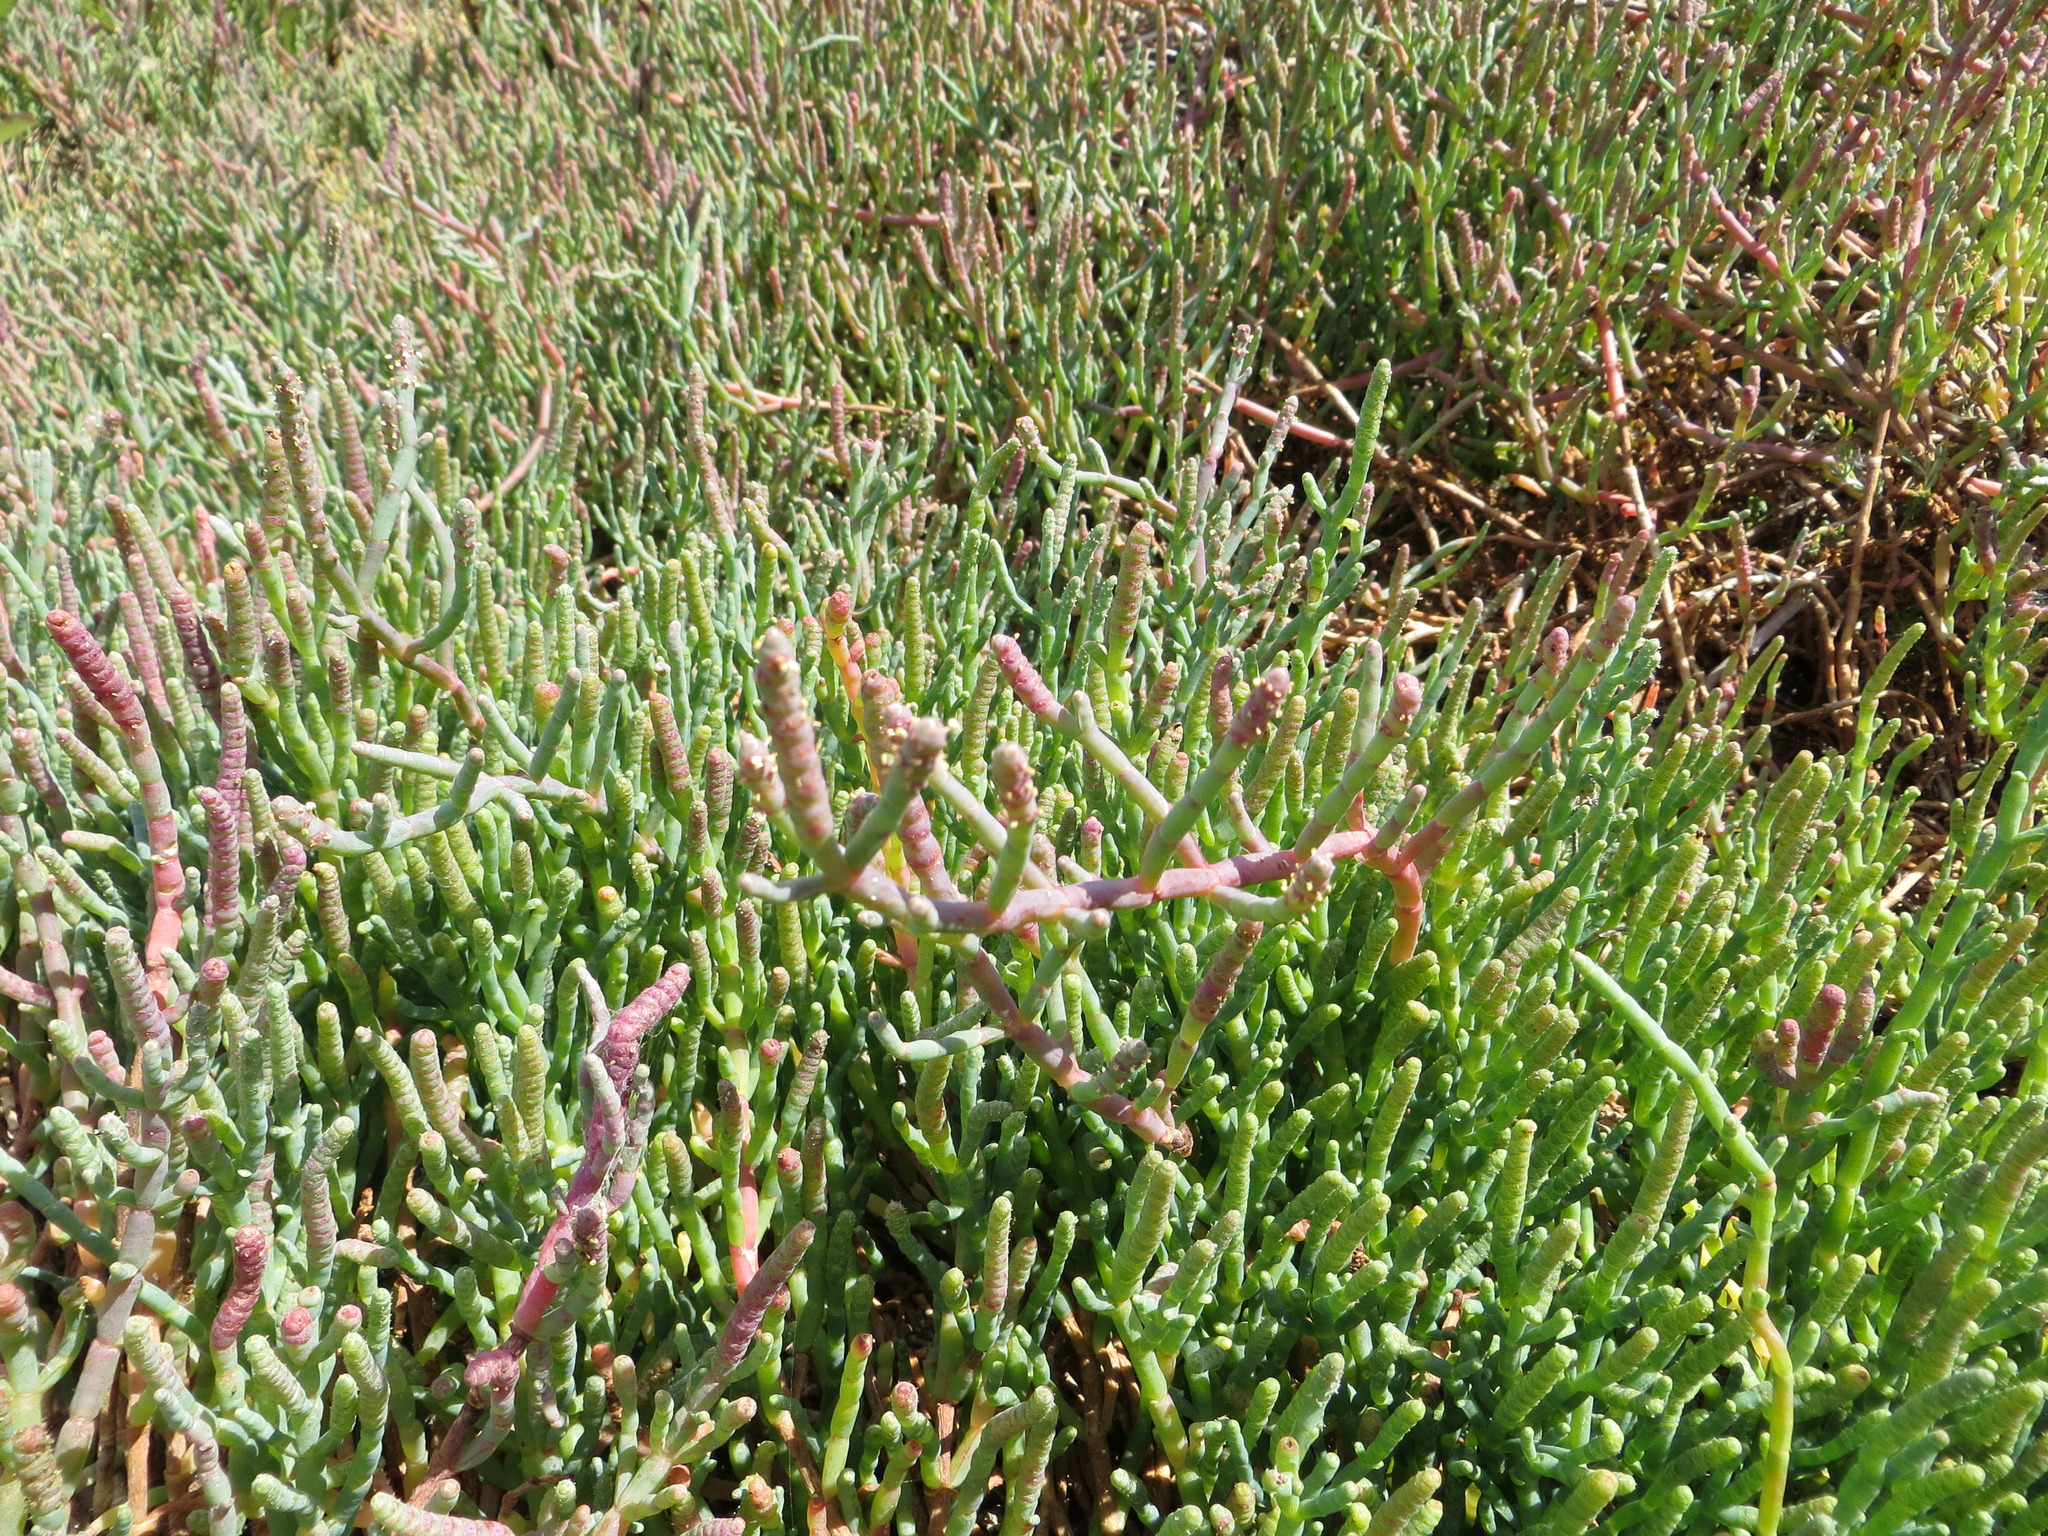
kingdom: Plantae
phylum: Tracheophyta
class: Magnoliopsida
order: Caryophyllales
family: Amaranthaceae
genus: Salicornia
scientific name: Salicornia virginica
